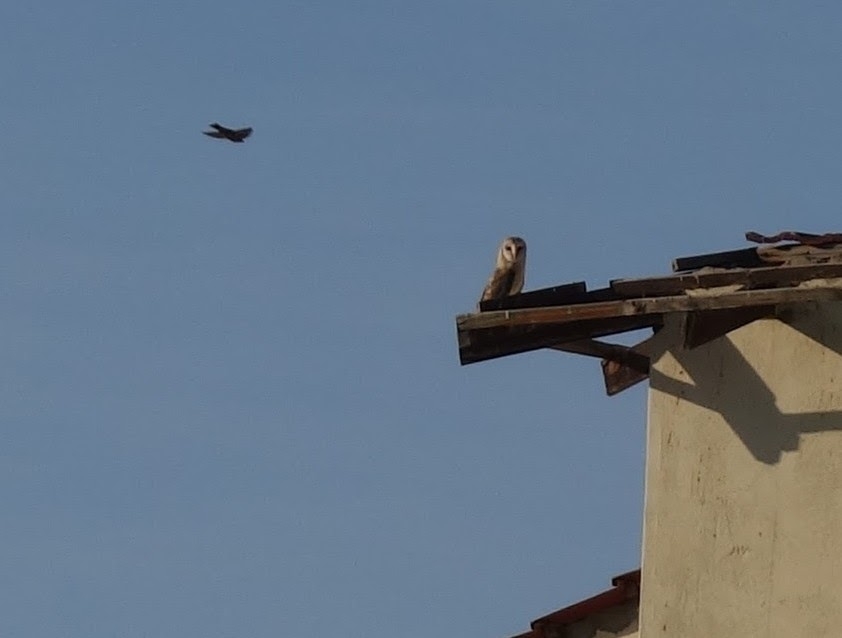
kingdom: Animalia
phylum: Chordata
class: Aves
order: Strigiformes
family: Tytonidae
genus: Tyto
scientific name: Tyto alba
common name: Barn owl
